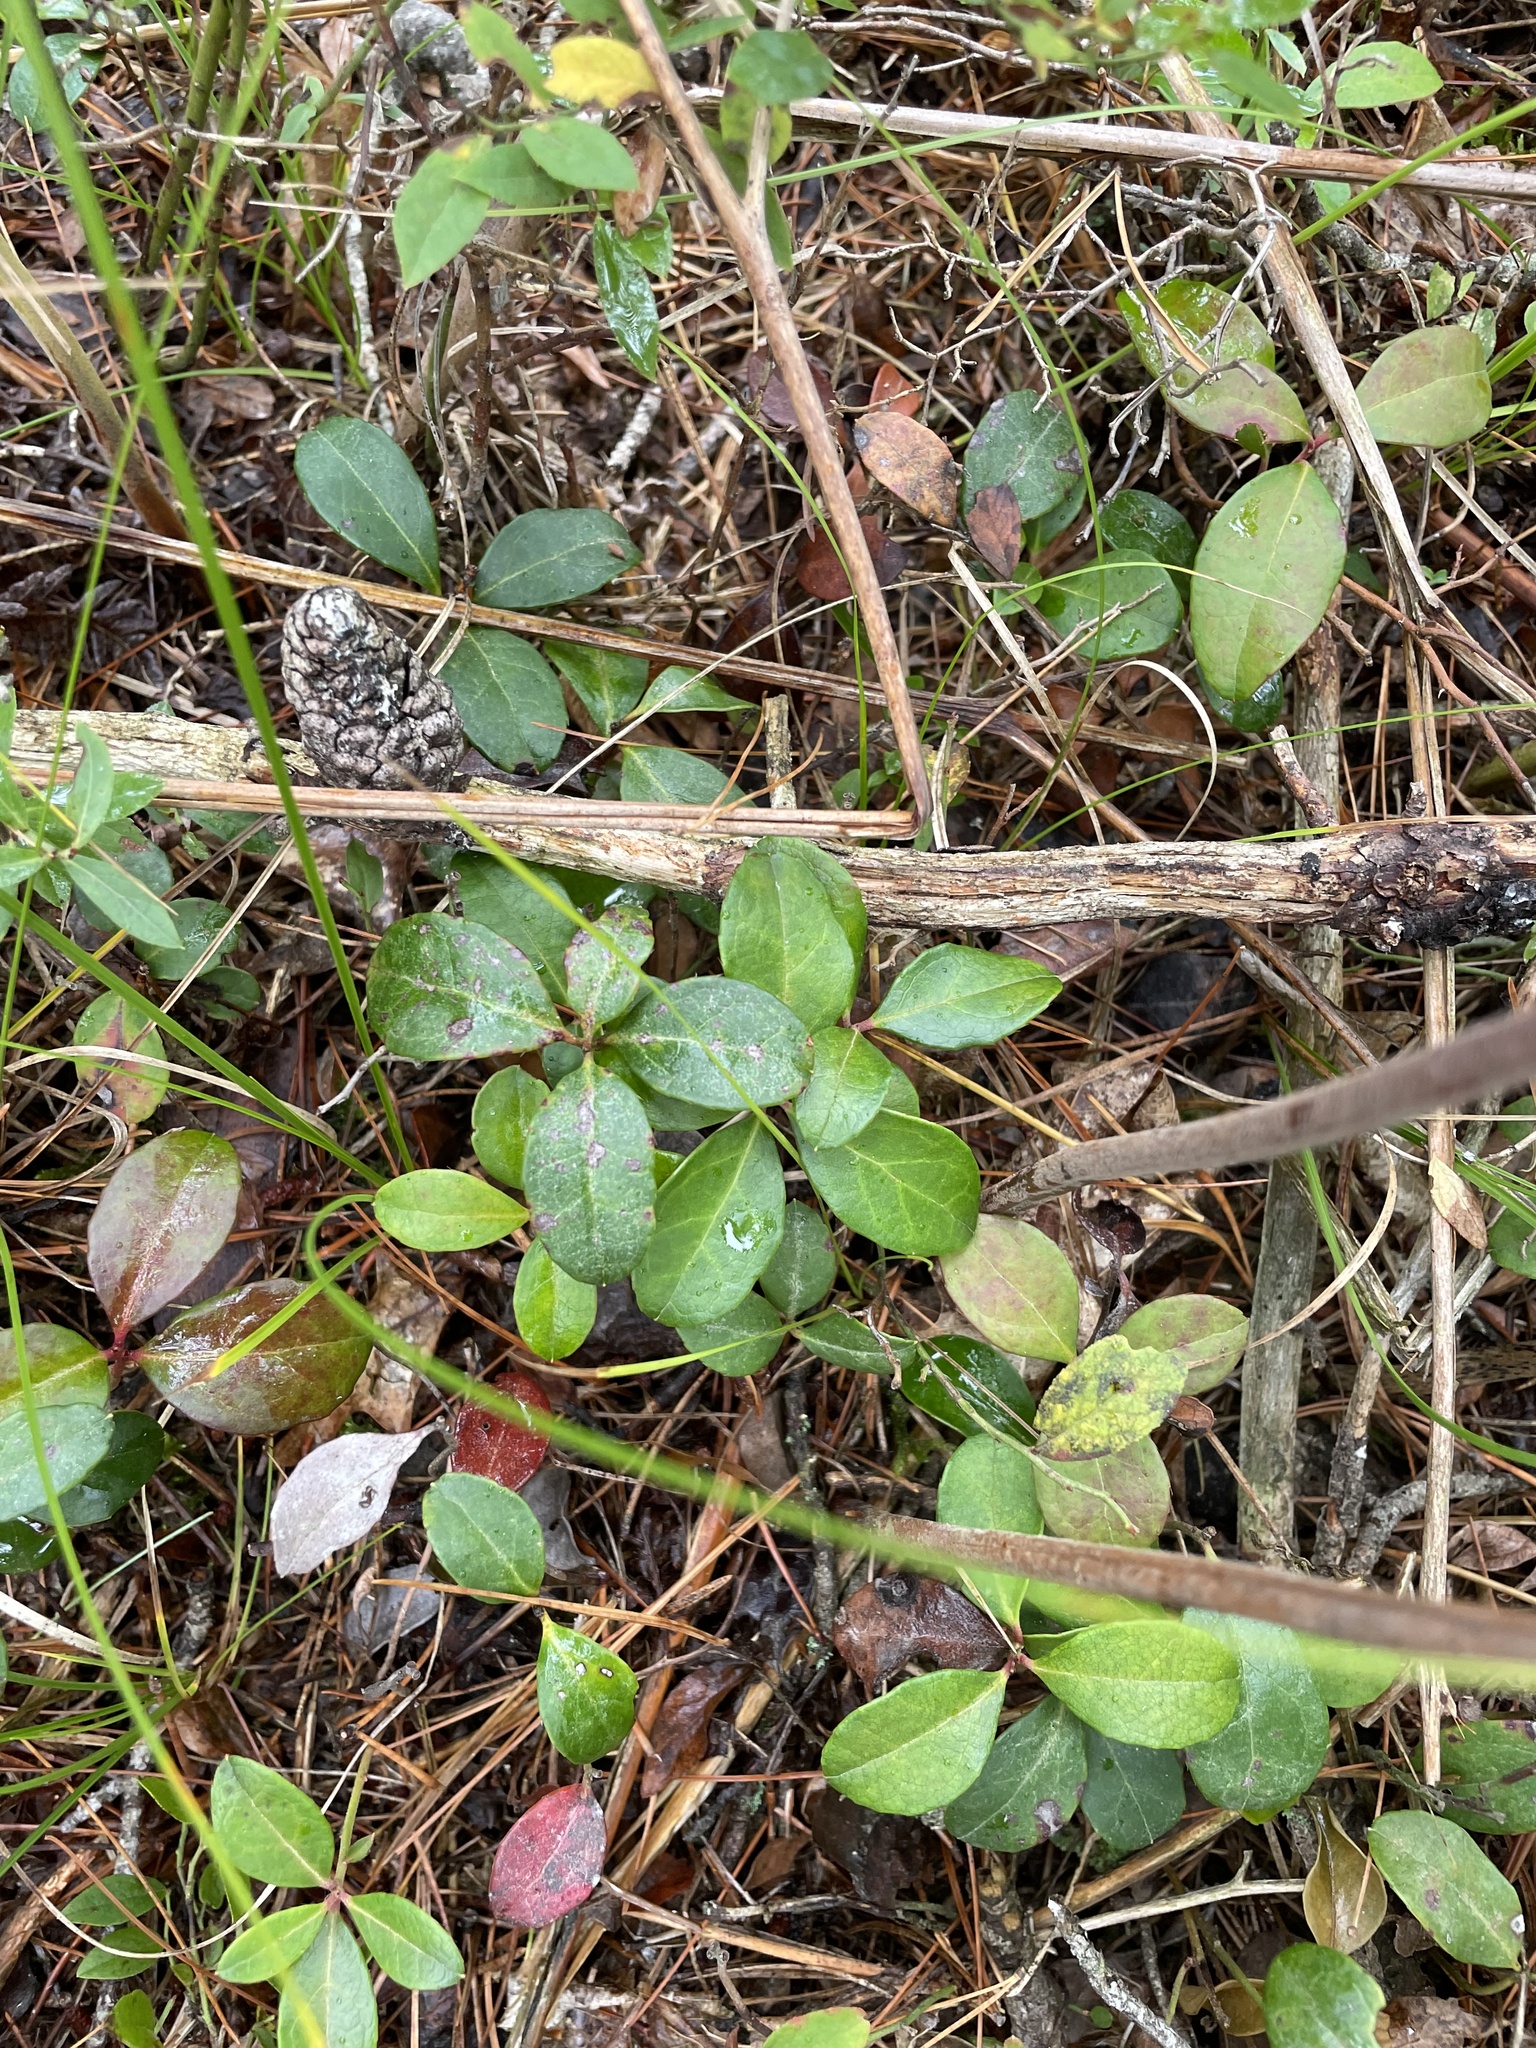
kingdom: Plantae
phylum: Tracheophyta
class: Magnoliopsida
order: Ericales
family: Ericaceae
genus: Gaultheria
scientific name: Gaultheria procumbens
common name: Checkerberry
